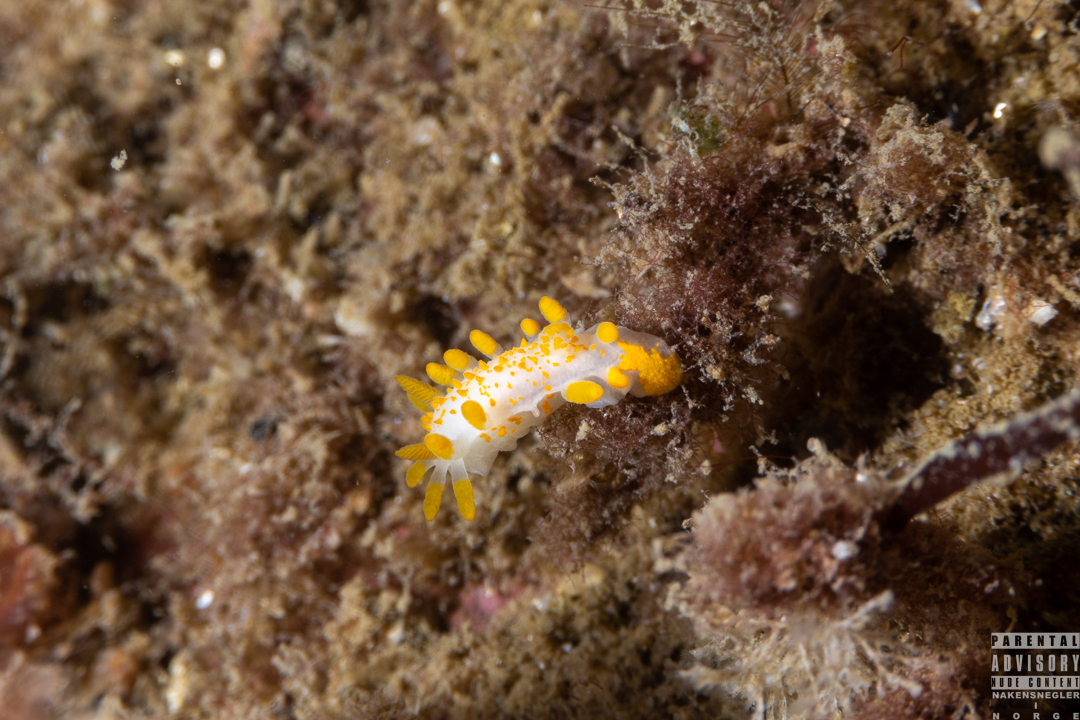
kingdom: Animalia
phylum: Mollusca
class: Gastropoda
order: Nudibranchia
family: Polyceridae
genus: Limacia
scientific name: Limacia clavigera
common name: Orange-clubbed sea slug
